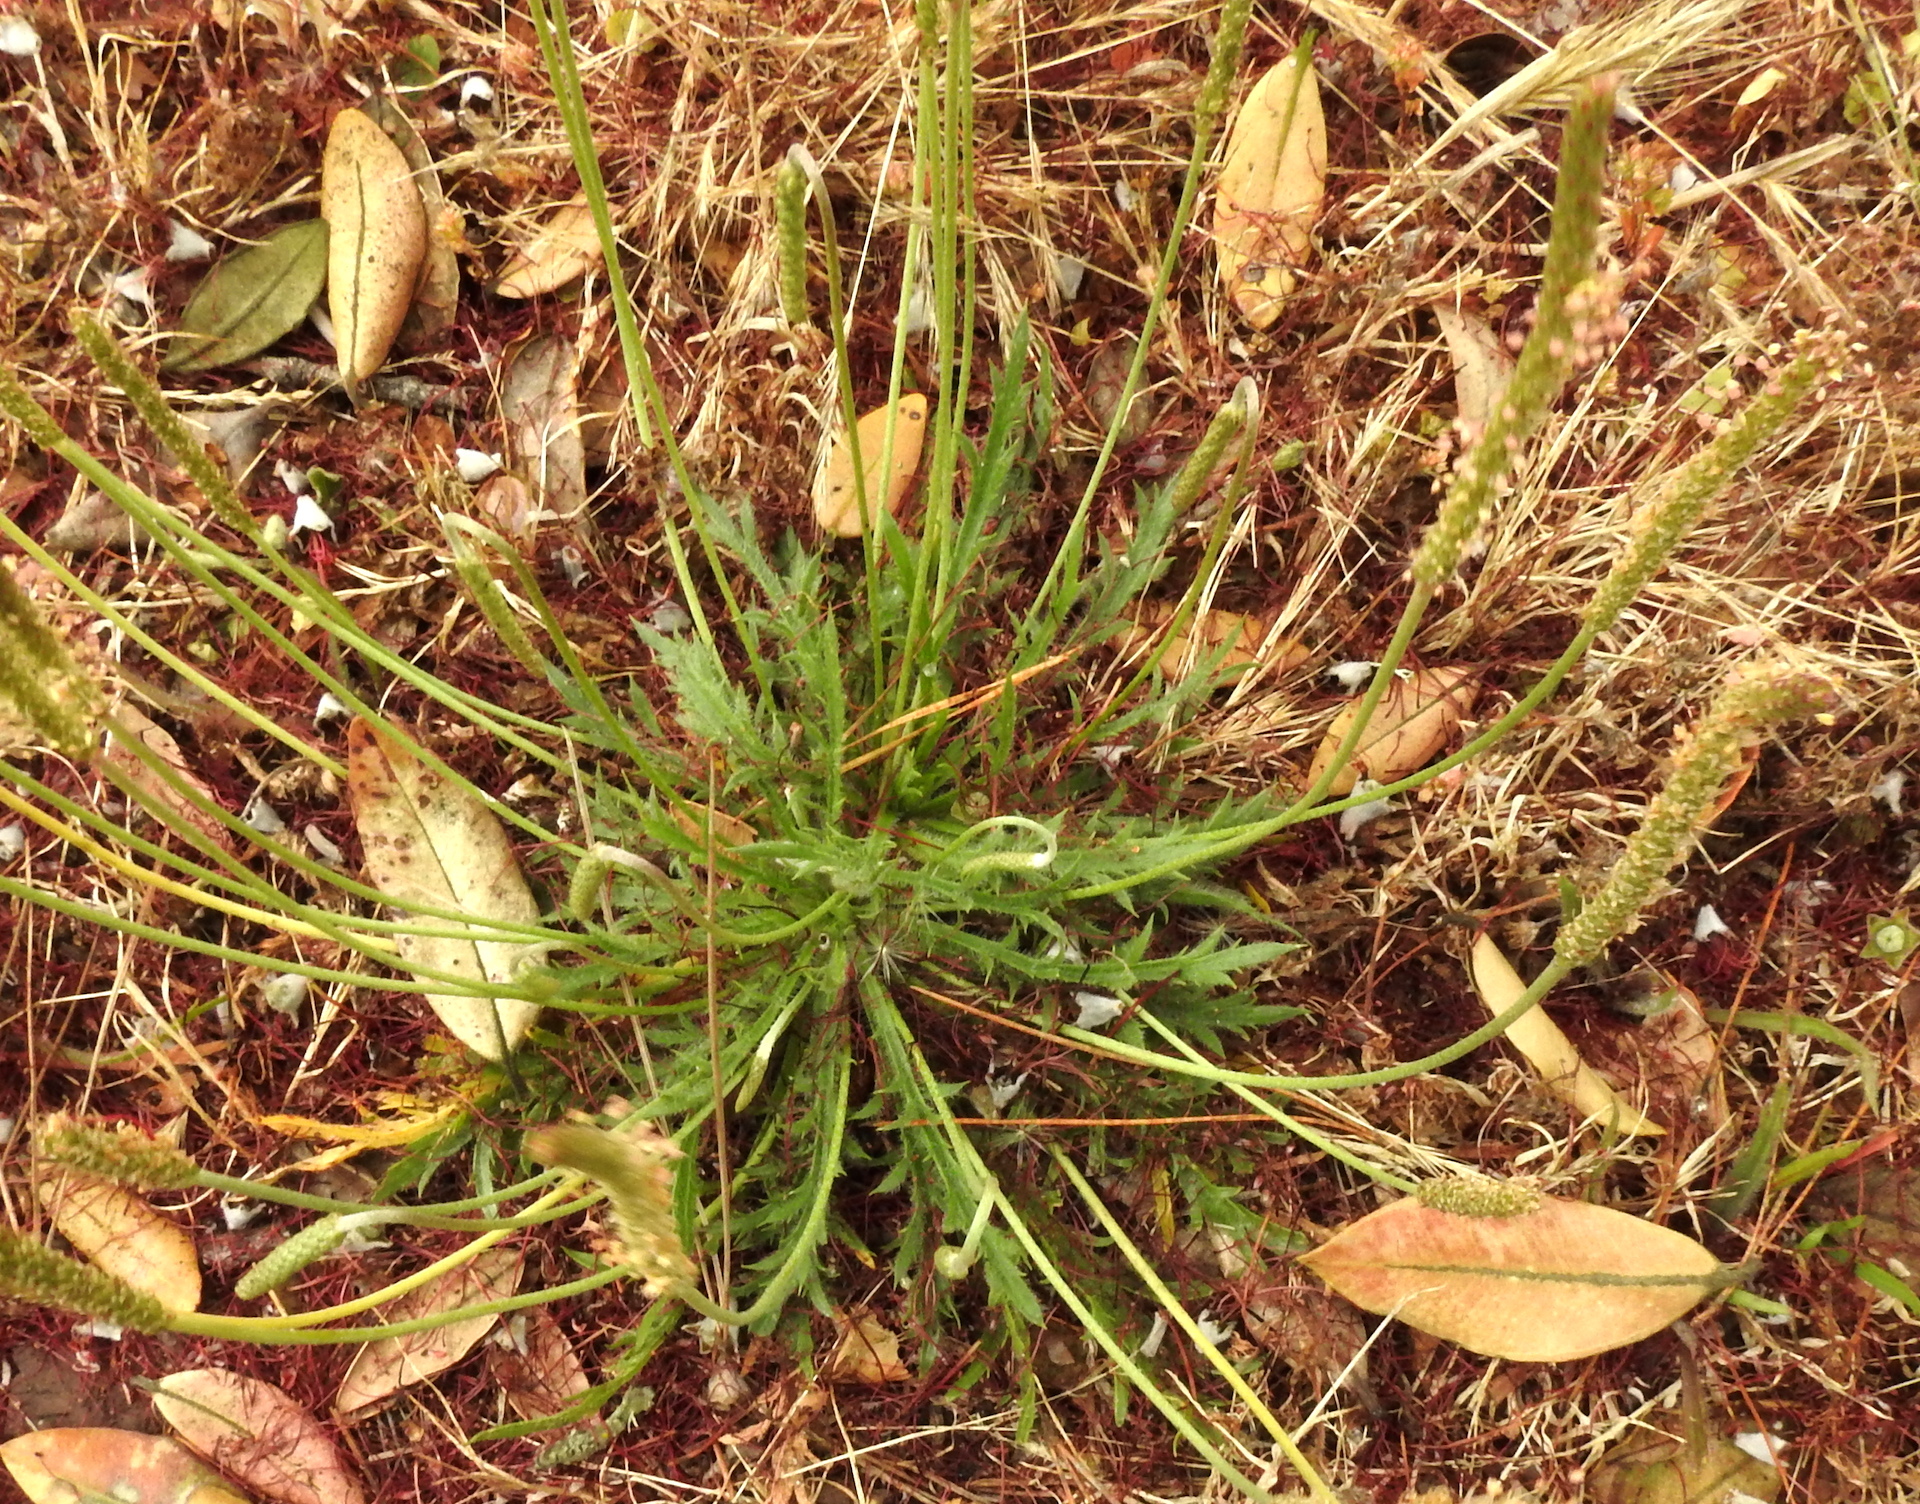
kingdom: Plantae
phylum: Tracheophyta
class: Magnoliopsida
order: Lamiales
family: Plantaginaceae
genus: Plantago
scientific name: Plantago coronopus
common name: Buck's-horn plantain
